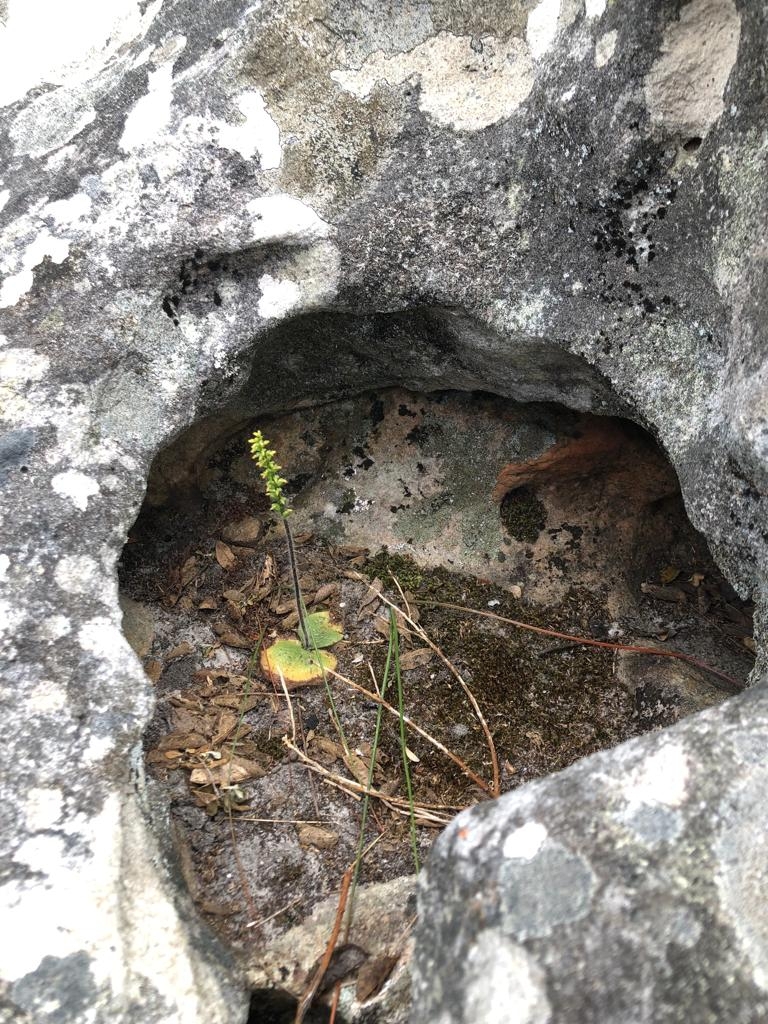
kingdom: Plantae
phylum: Tracheophyta
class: Liliopsida
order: Asparagales
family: Orchidaceae
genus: Holothrix
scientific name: Holothrix villosa
